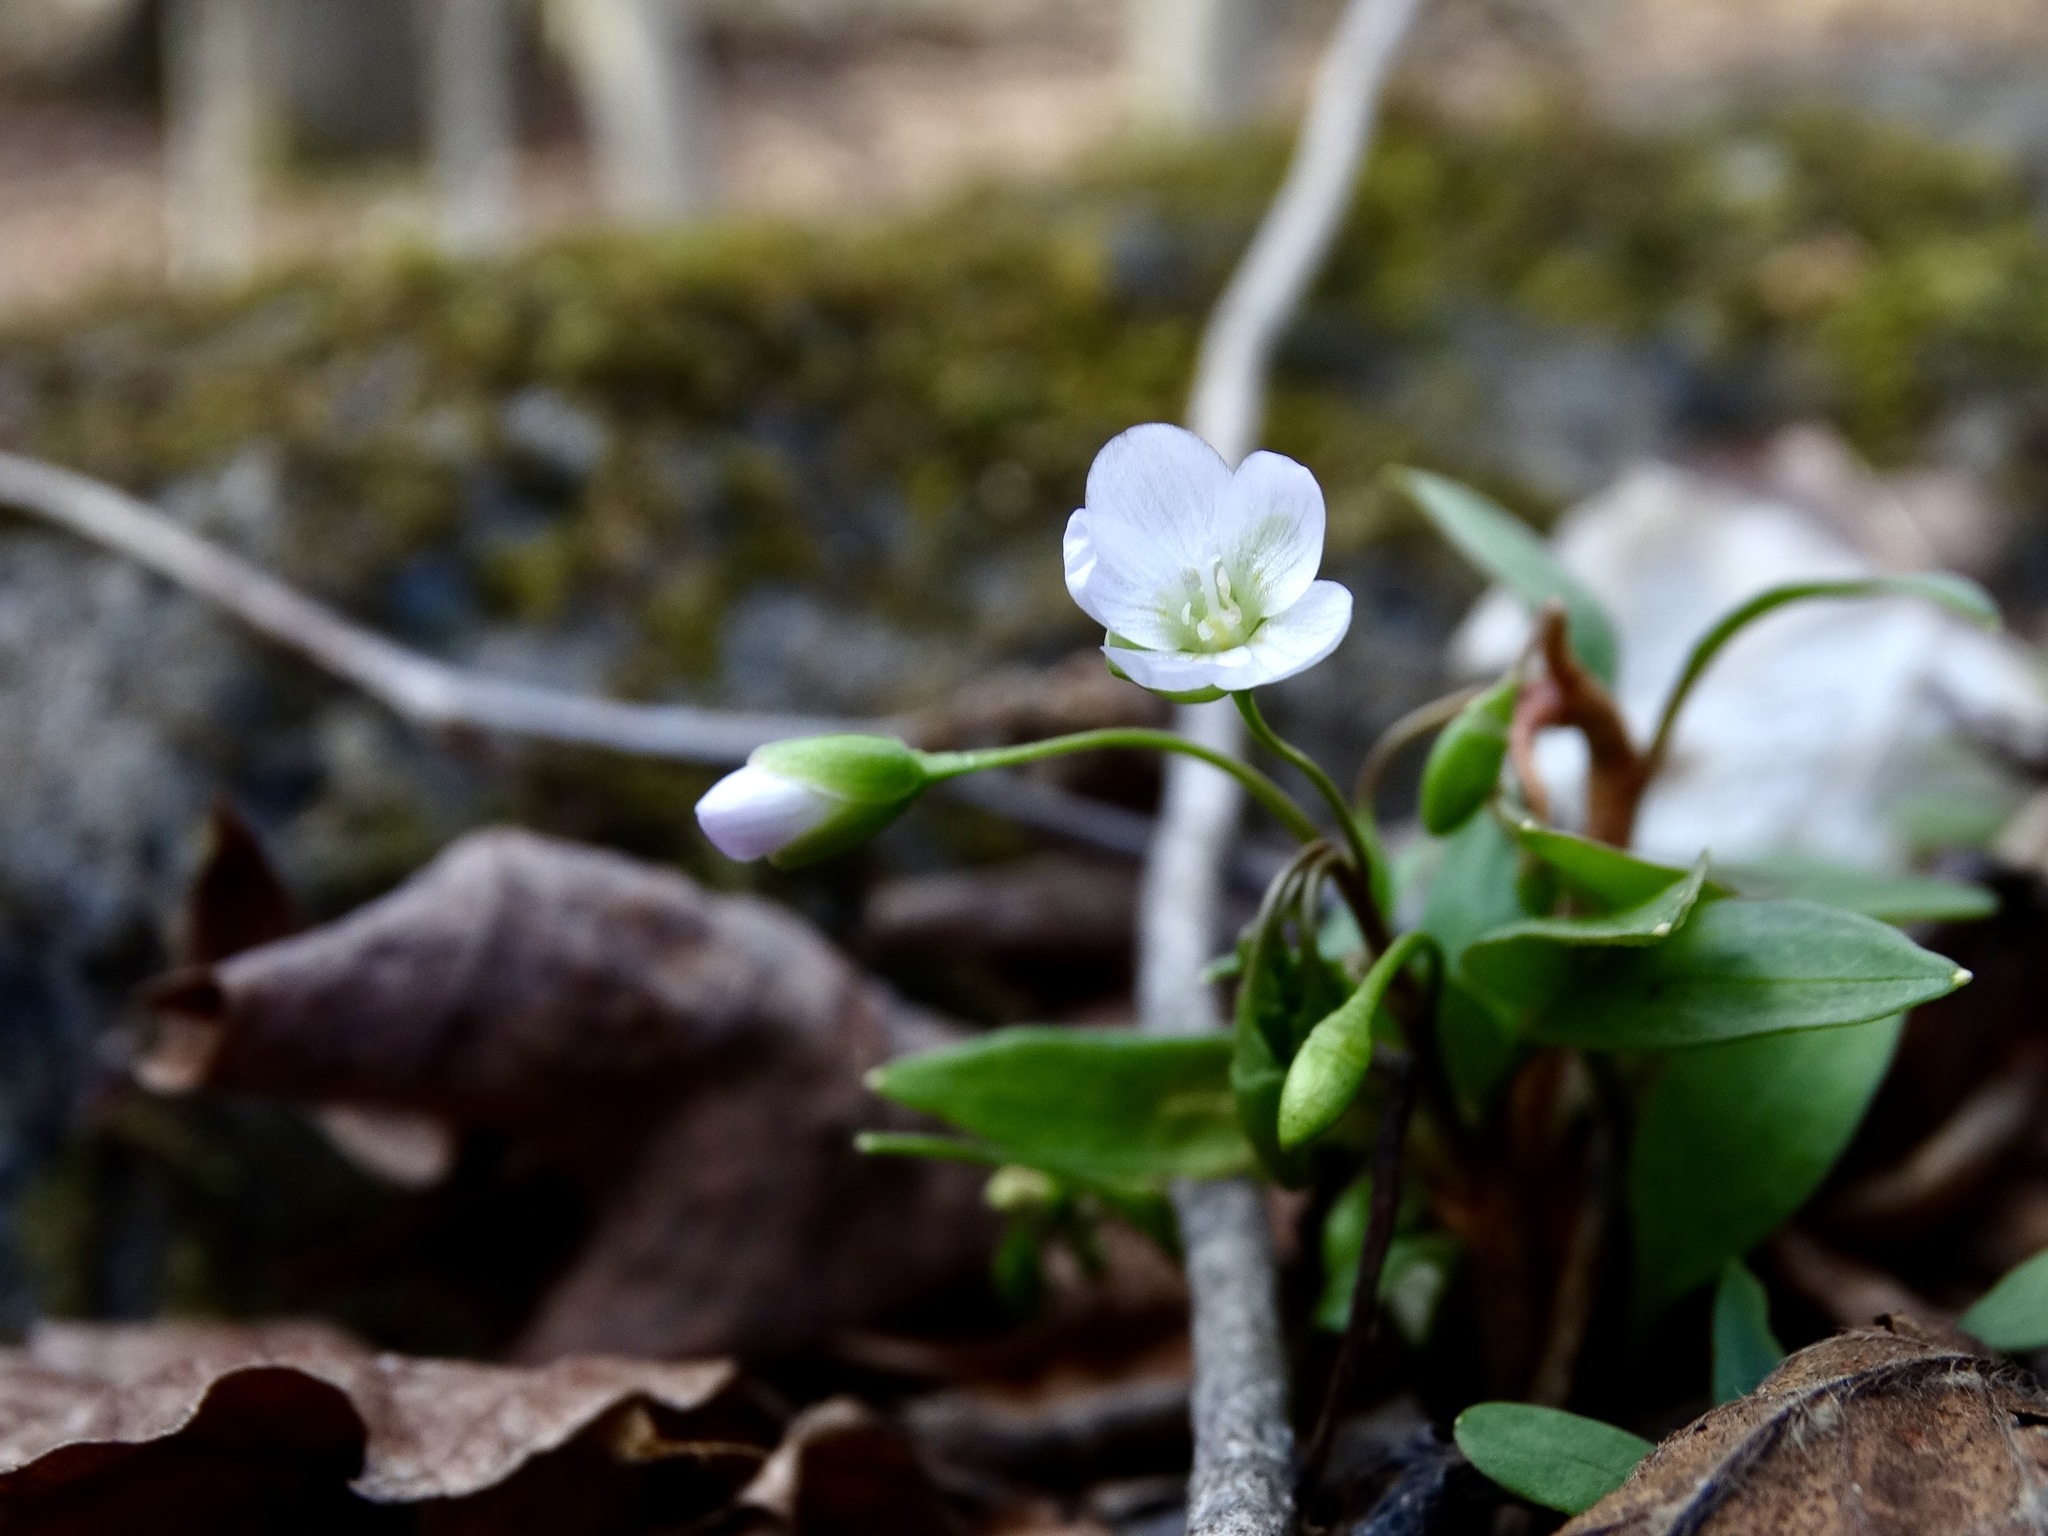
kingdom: Plantae
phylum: Tracheophyta
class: Magnoliopsida
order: Caryophyllales
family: Montiaceae
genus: Claytonia
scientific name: Claytonia caroliniana
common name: Carolina spring beauty
